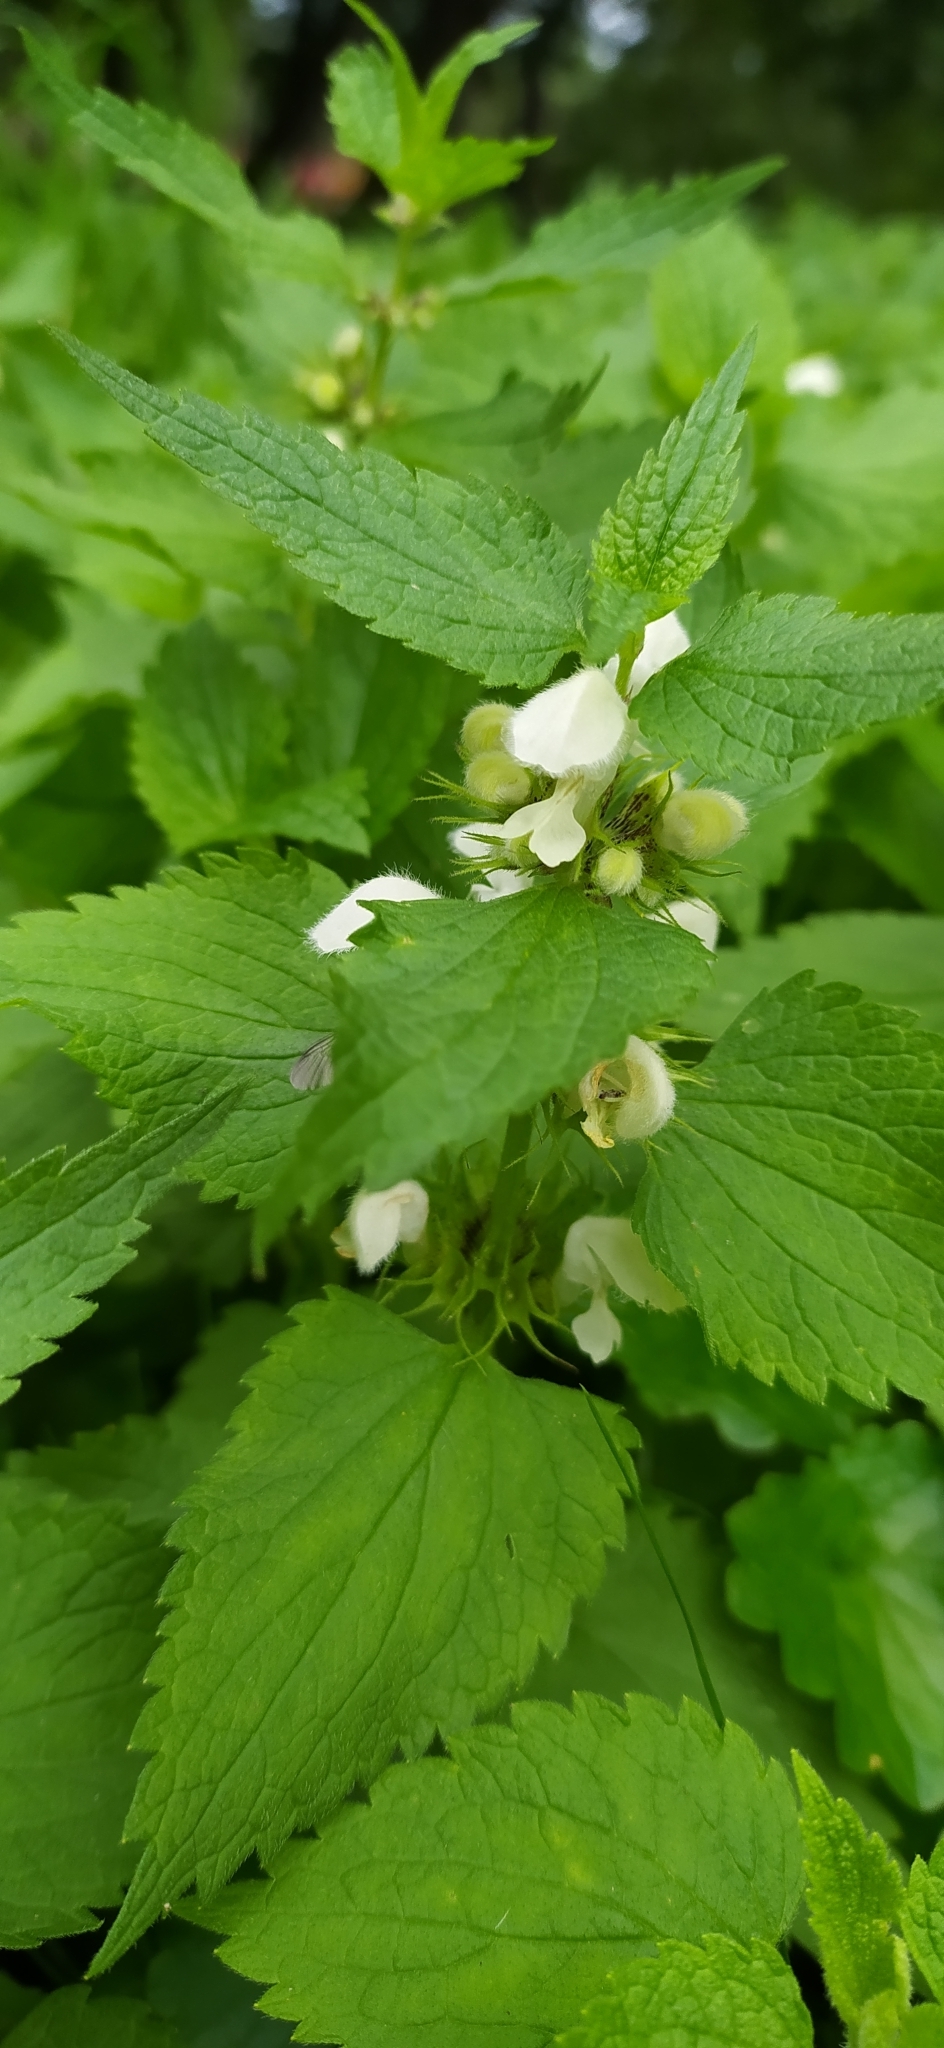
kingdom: Plantae
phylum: Tracheophyta
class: Magnoliopsida
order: Lamiales
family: Lamiaceae
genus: Lamium
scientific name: Lamium album
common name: White dead-nettle
